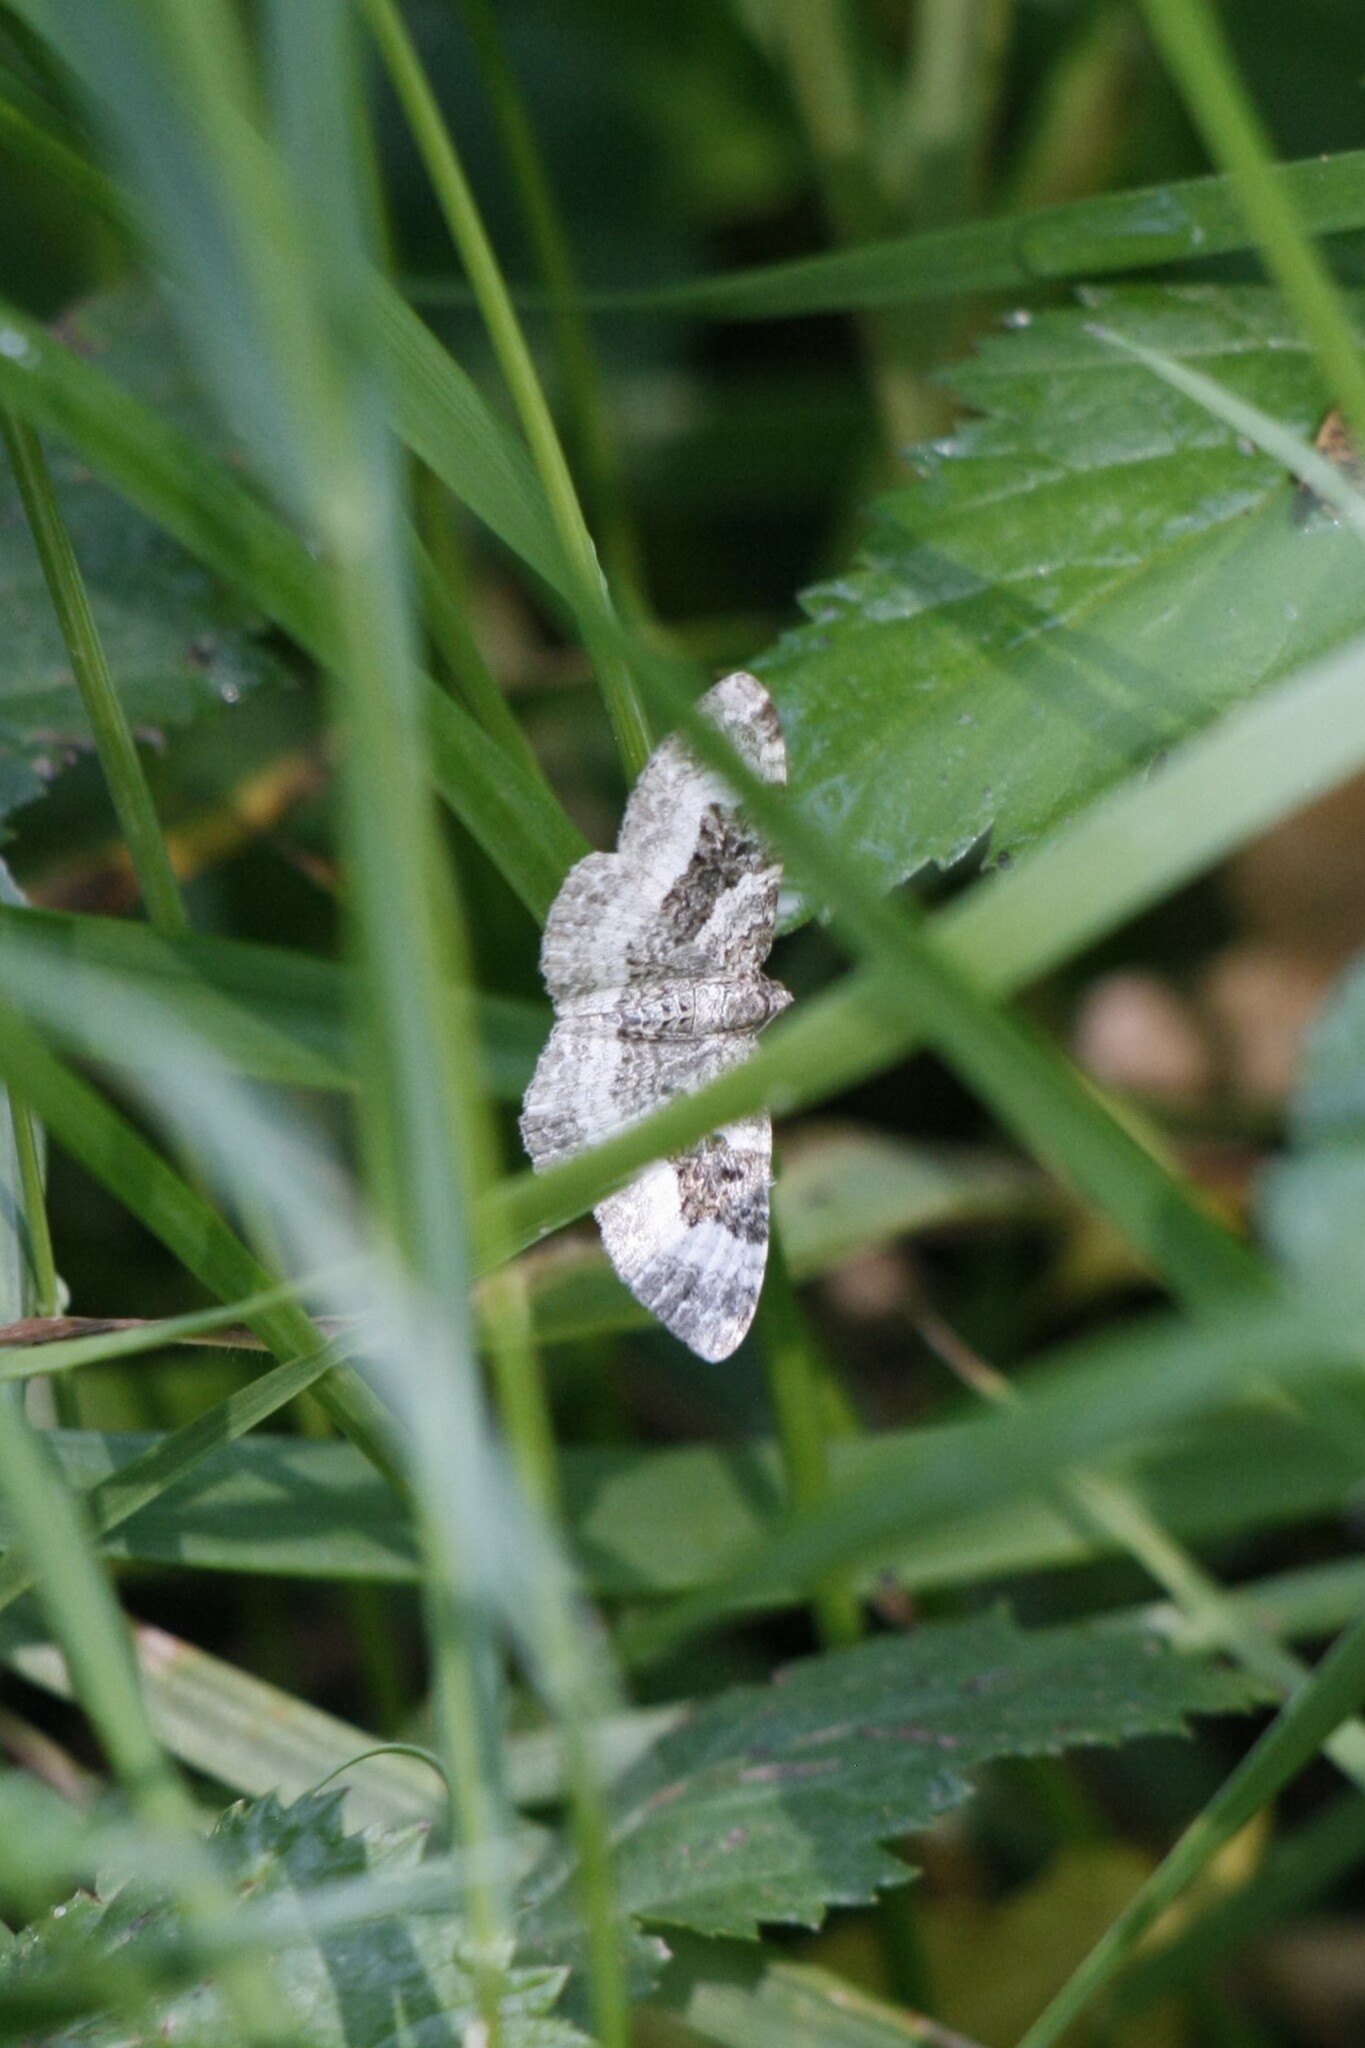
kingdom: Animalia
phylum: Arthropoda
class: Insecta
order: Lepidoptera
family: Geometridae
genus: Epirrhoe
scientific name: Epirrhoe alternata
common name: Common carpet
